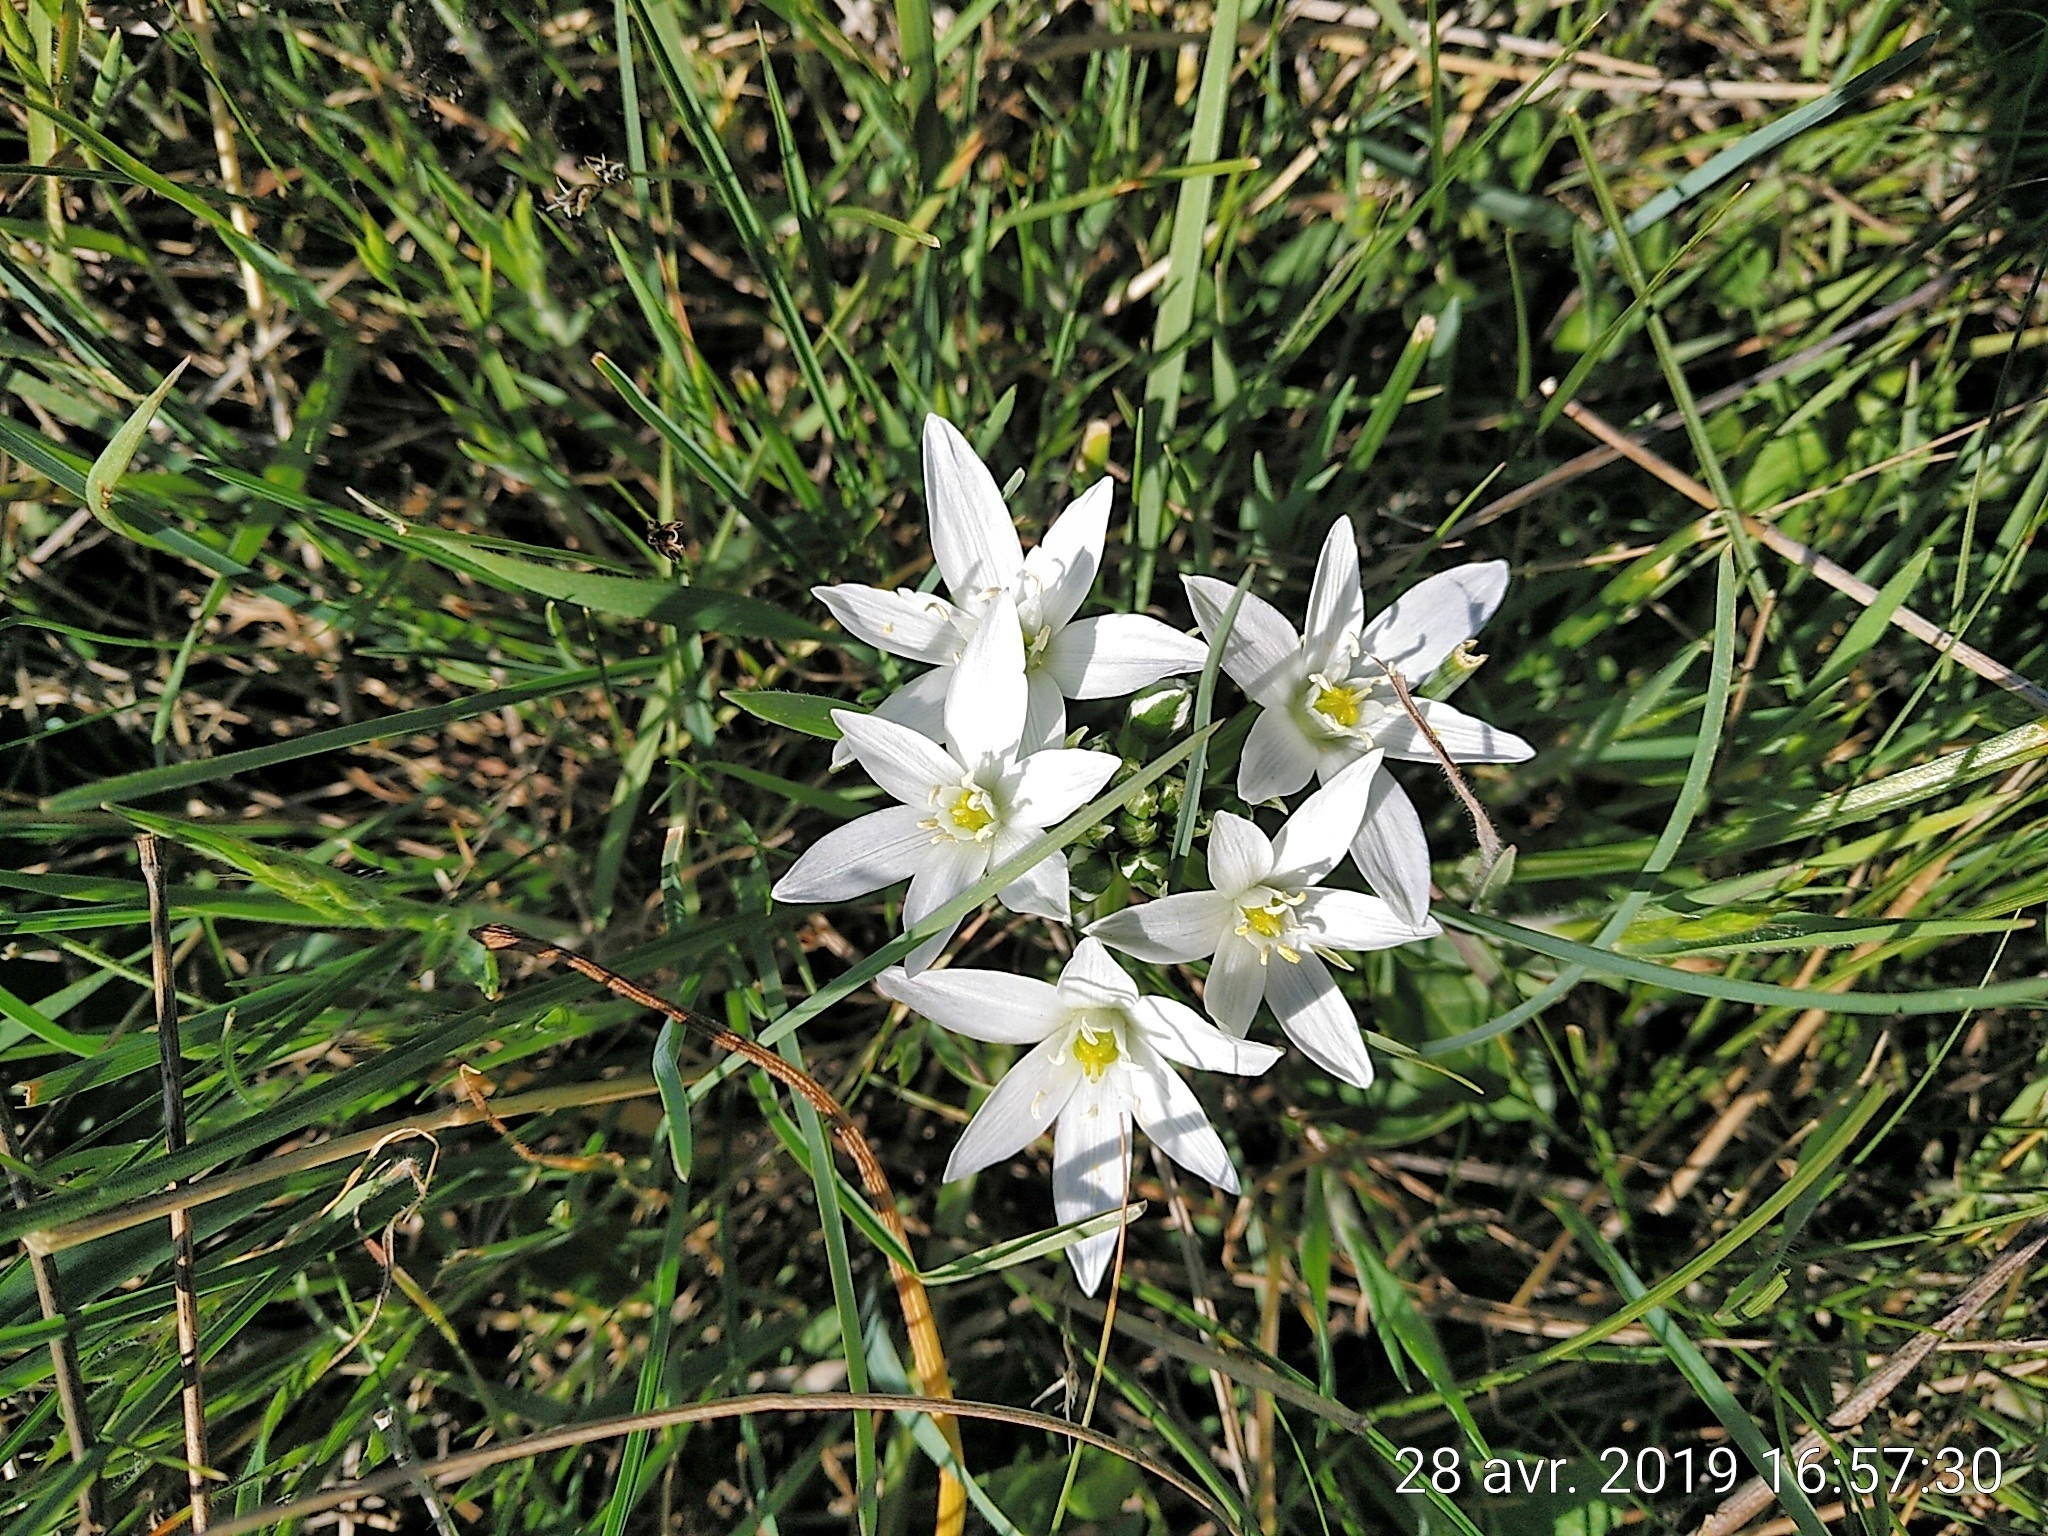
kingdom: Plantae
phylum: Tracheophyta
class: Liliopsida
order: Asparagales
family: Asparagaceae
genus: Ornithogalum
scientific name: Ornithogalum umbellatum
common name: Garden star-of-bethlehem
